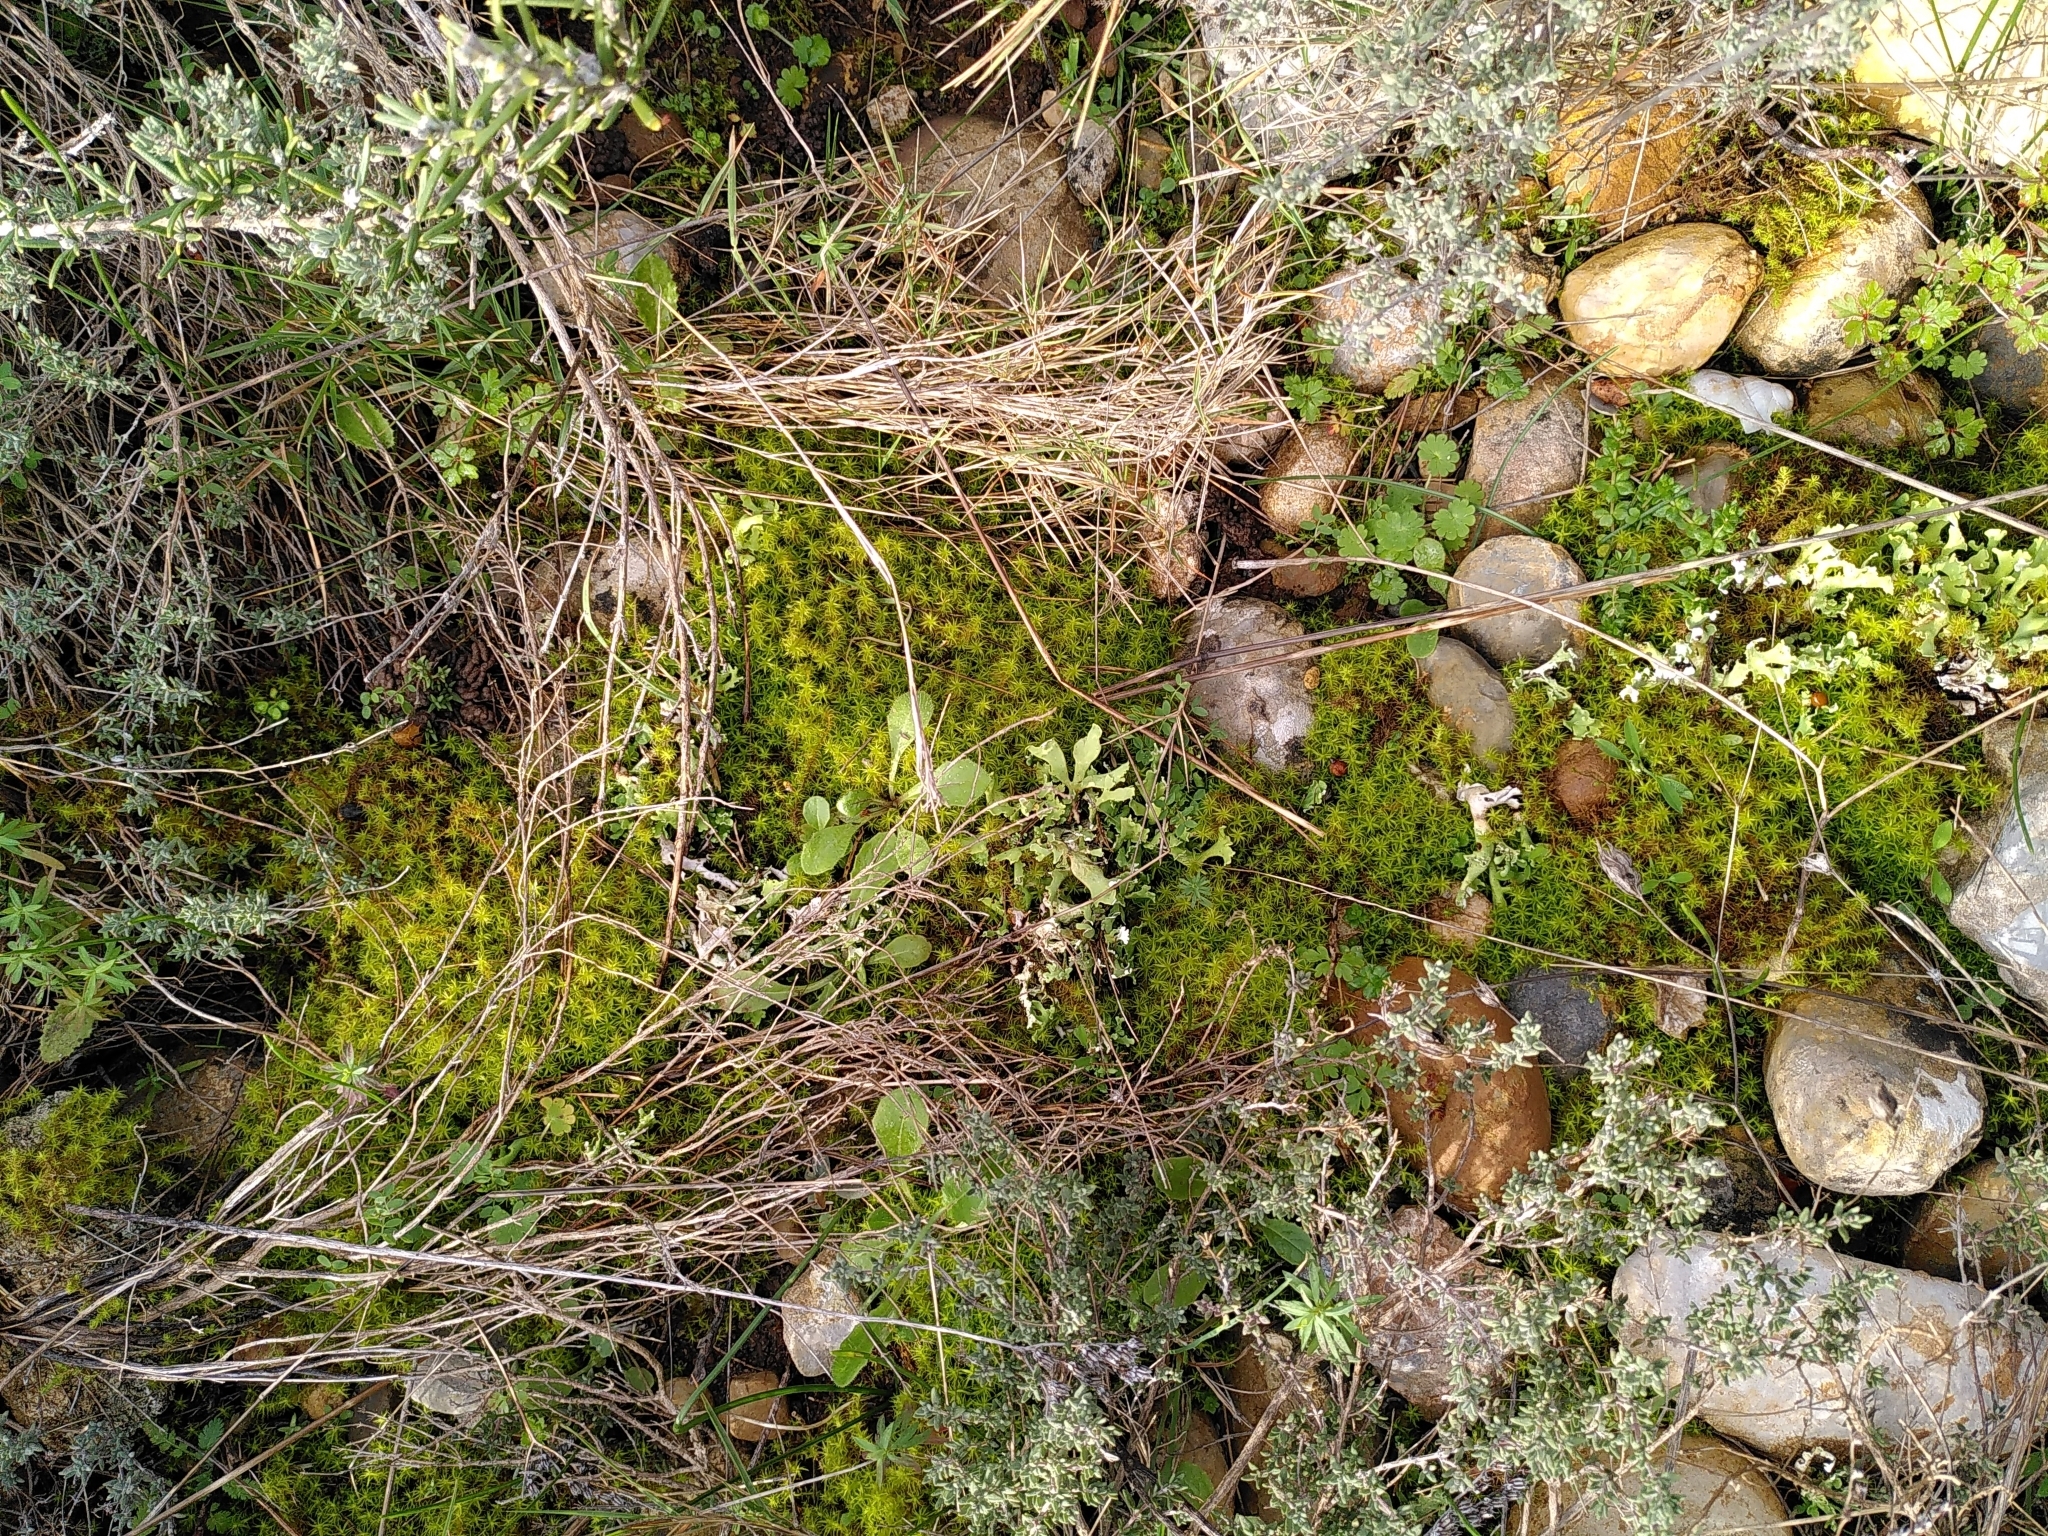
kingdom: Plantae
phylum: Bryophyta
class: Bryopsida
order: Pottiales
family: Pottiaceae
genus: Pleurochaete
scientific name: Pleurochaete squarrosa
